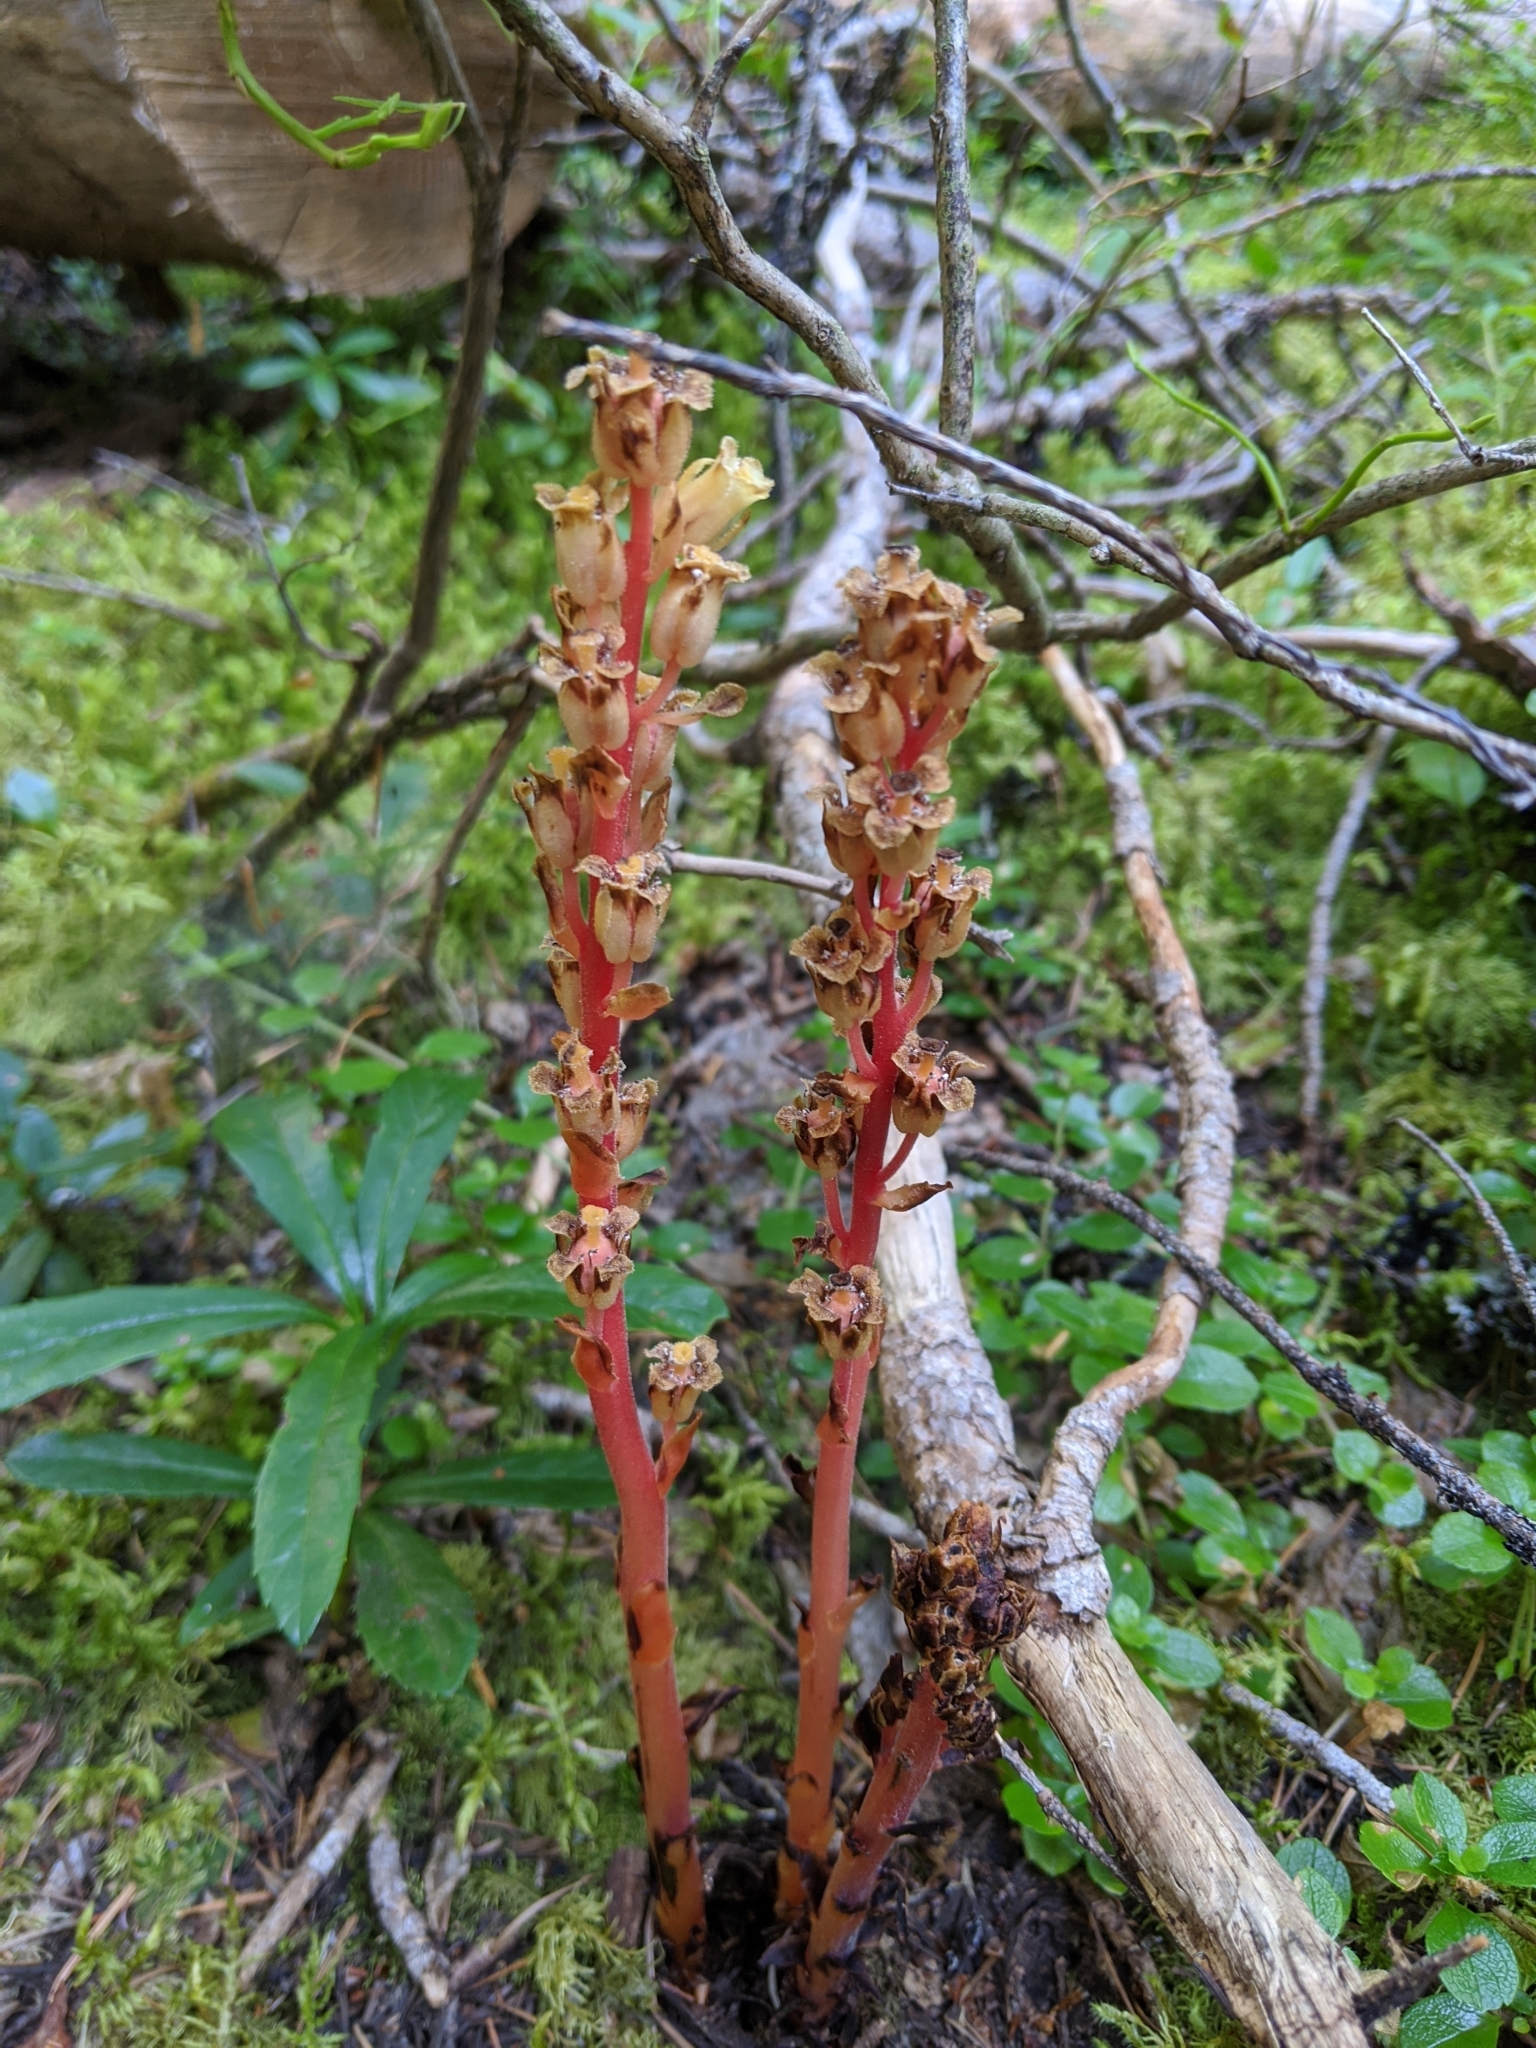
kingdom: Plantae
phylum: Tracheophyta
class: Magnoliopsida
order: Ericales
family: Ericaceae
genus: Hypopitys
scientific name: Hypopitys monotropa
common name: Yellow bird's-nest
